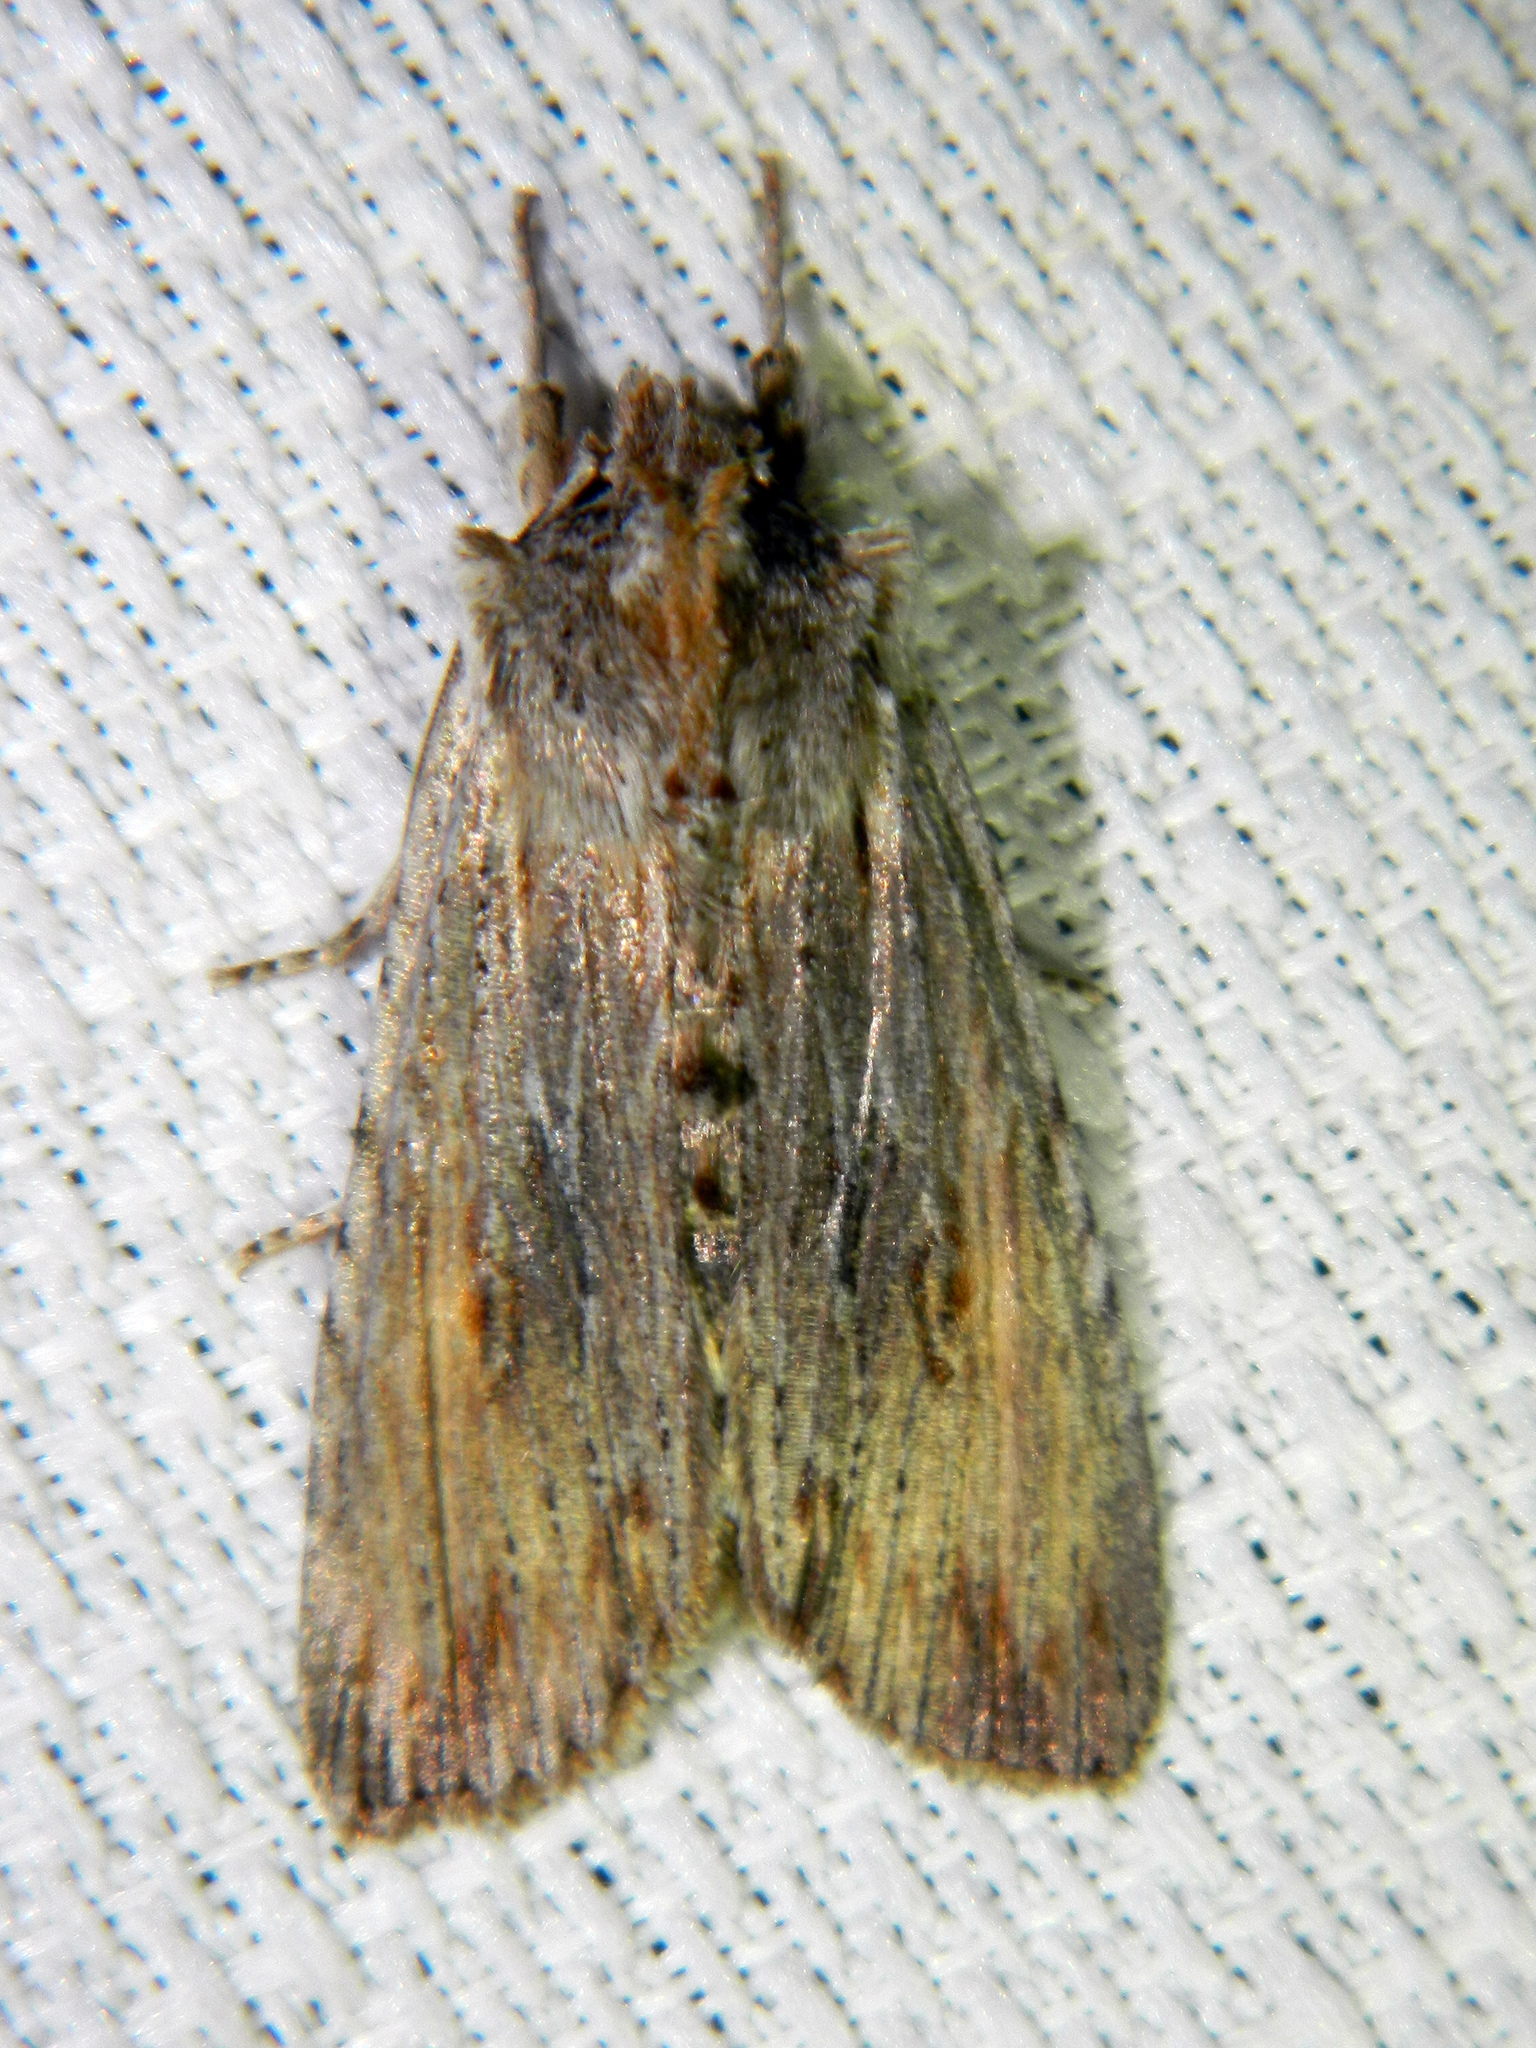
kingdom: Animalia
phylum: Arthropoda
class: Insecta
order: Lepidoptera
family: Noctuidae
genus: Lithophane
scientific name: Lithophane amanda
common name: Amanda's pinion moth
